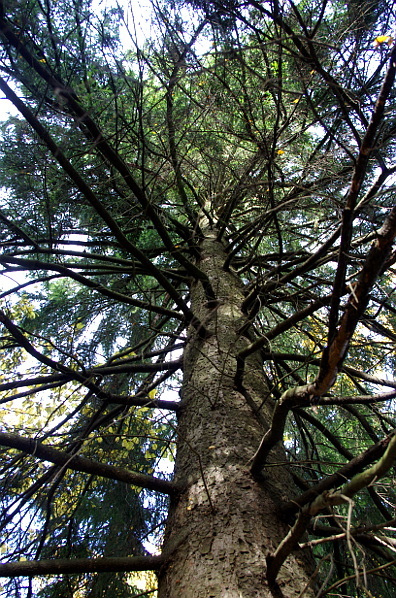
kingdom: Plantae
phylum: Tracheophyta
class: Pinopsida
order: Pinales
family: Pinaceae
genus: Picea
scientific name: Picea abies
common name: Norway spruce
